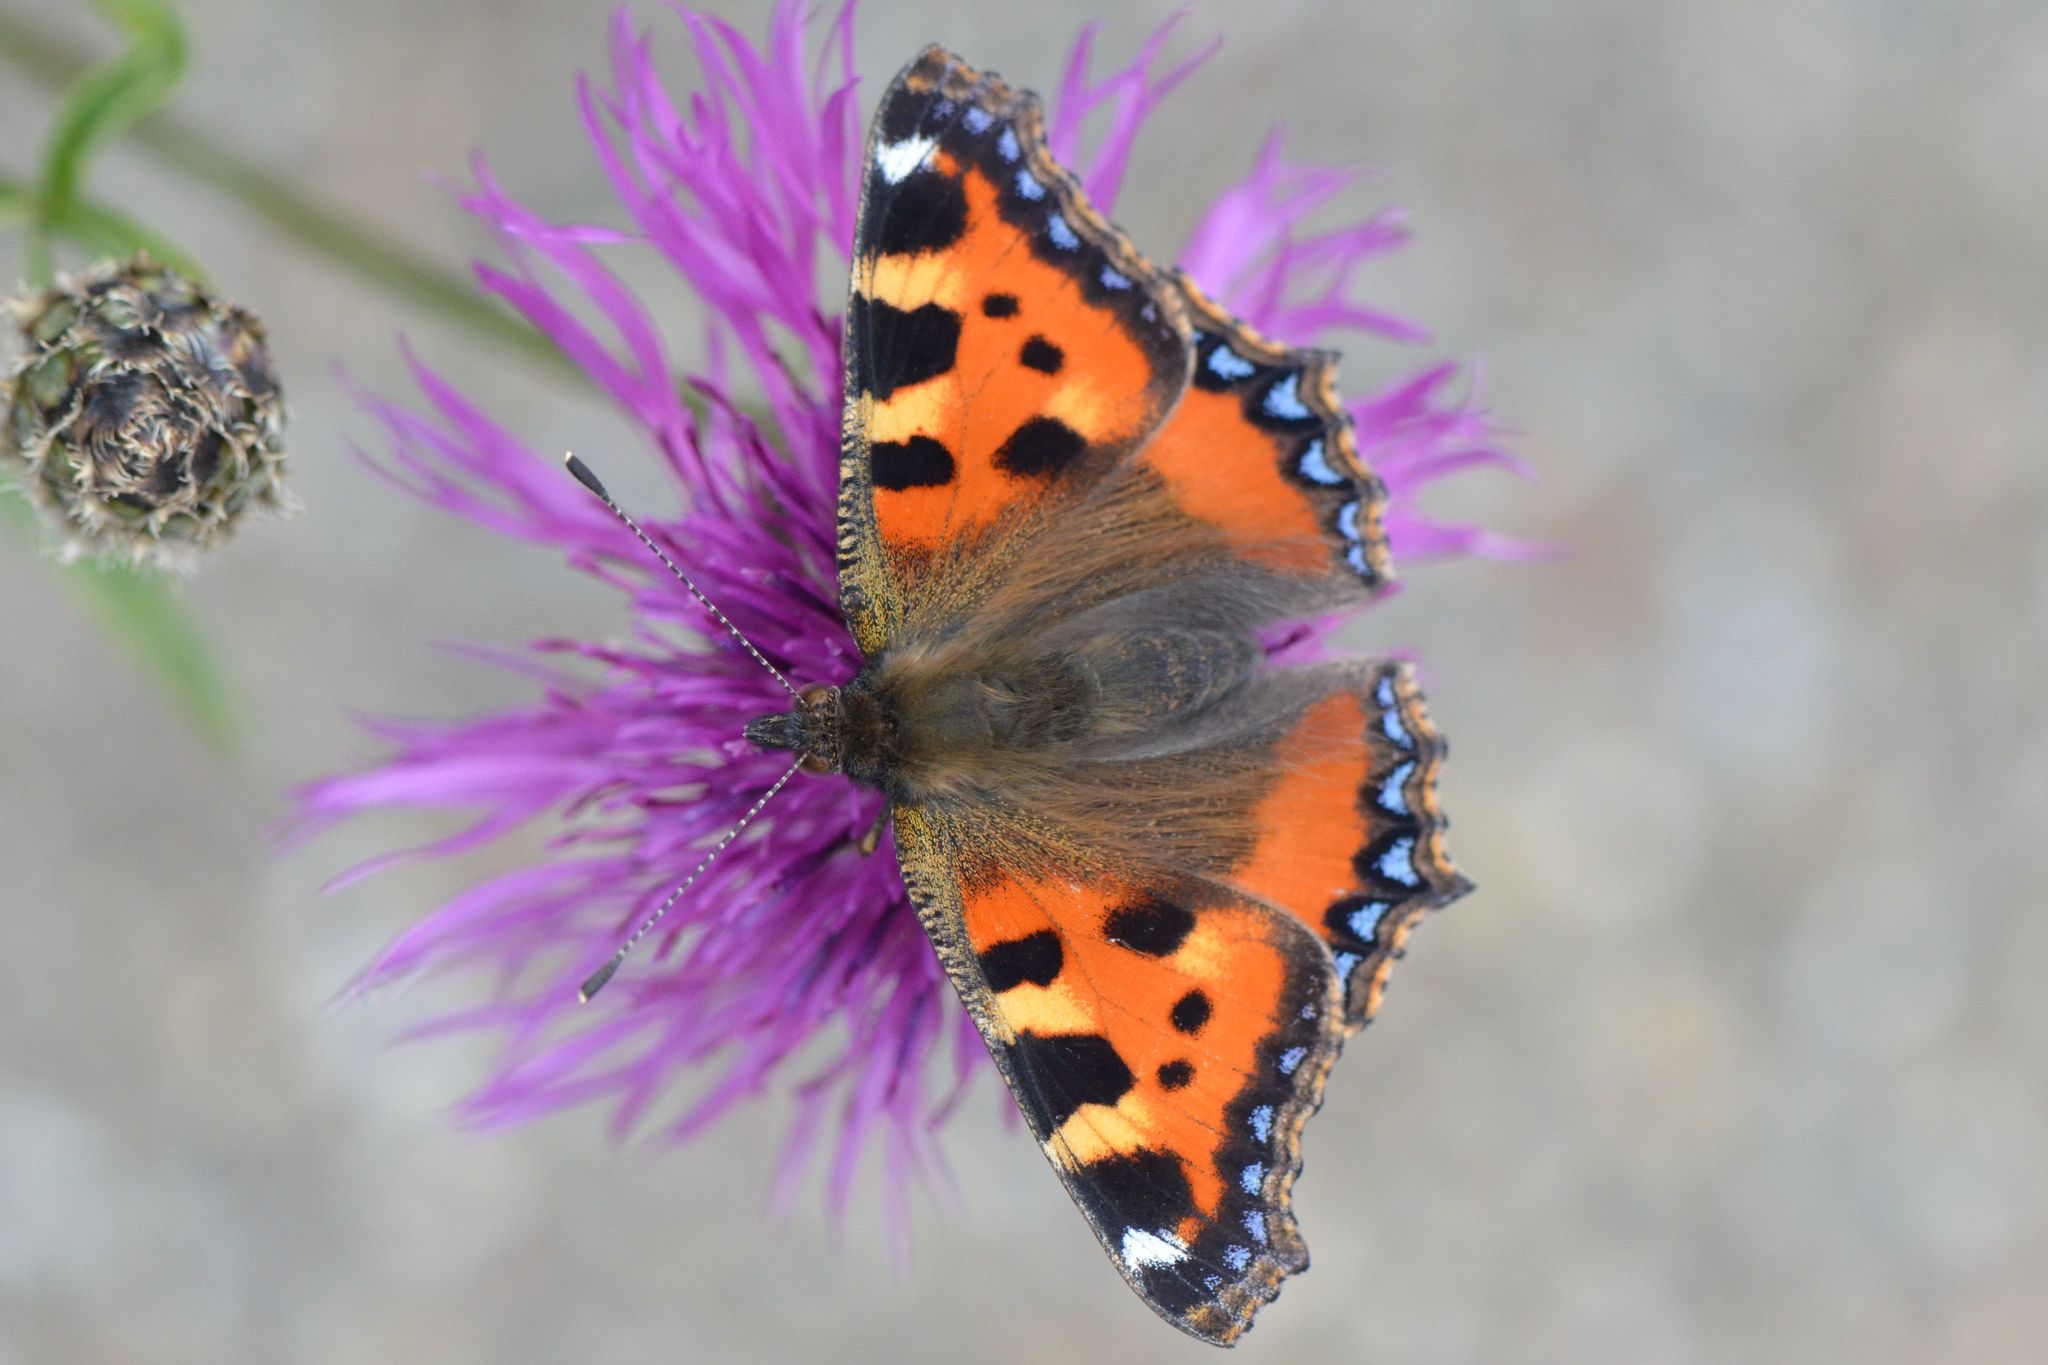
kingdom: Animalia
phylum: Arthropoda
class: Insecta
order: Lepidoptera
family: Nymphalidae
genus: Aglais
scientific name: Aglais urticae
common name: Small tortoiseshell
